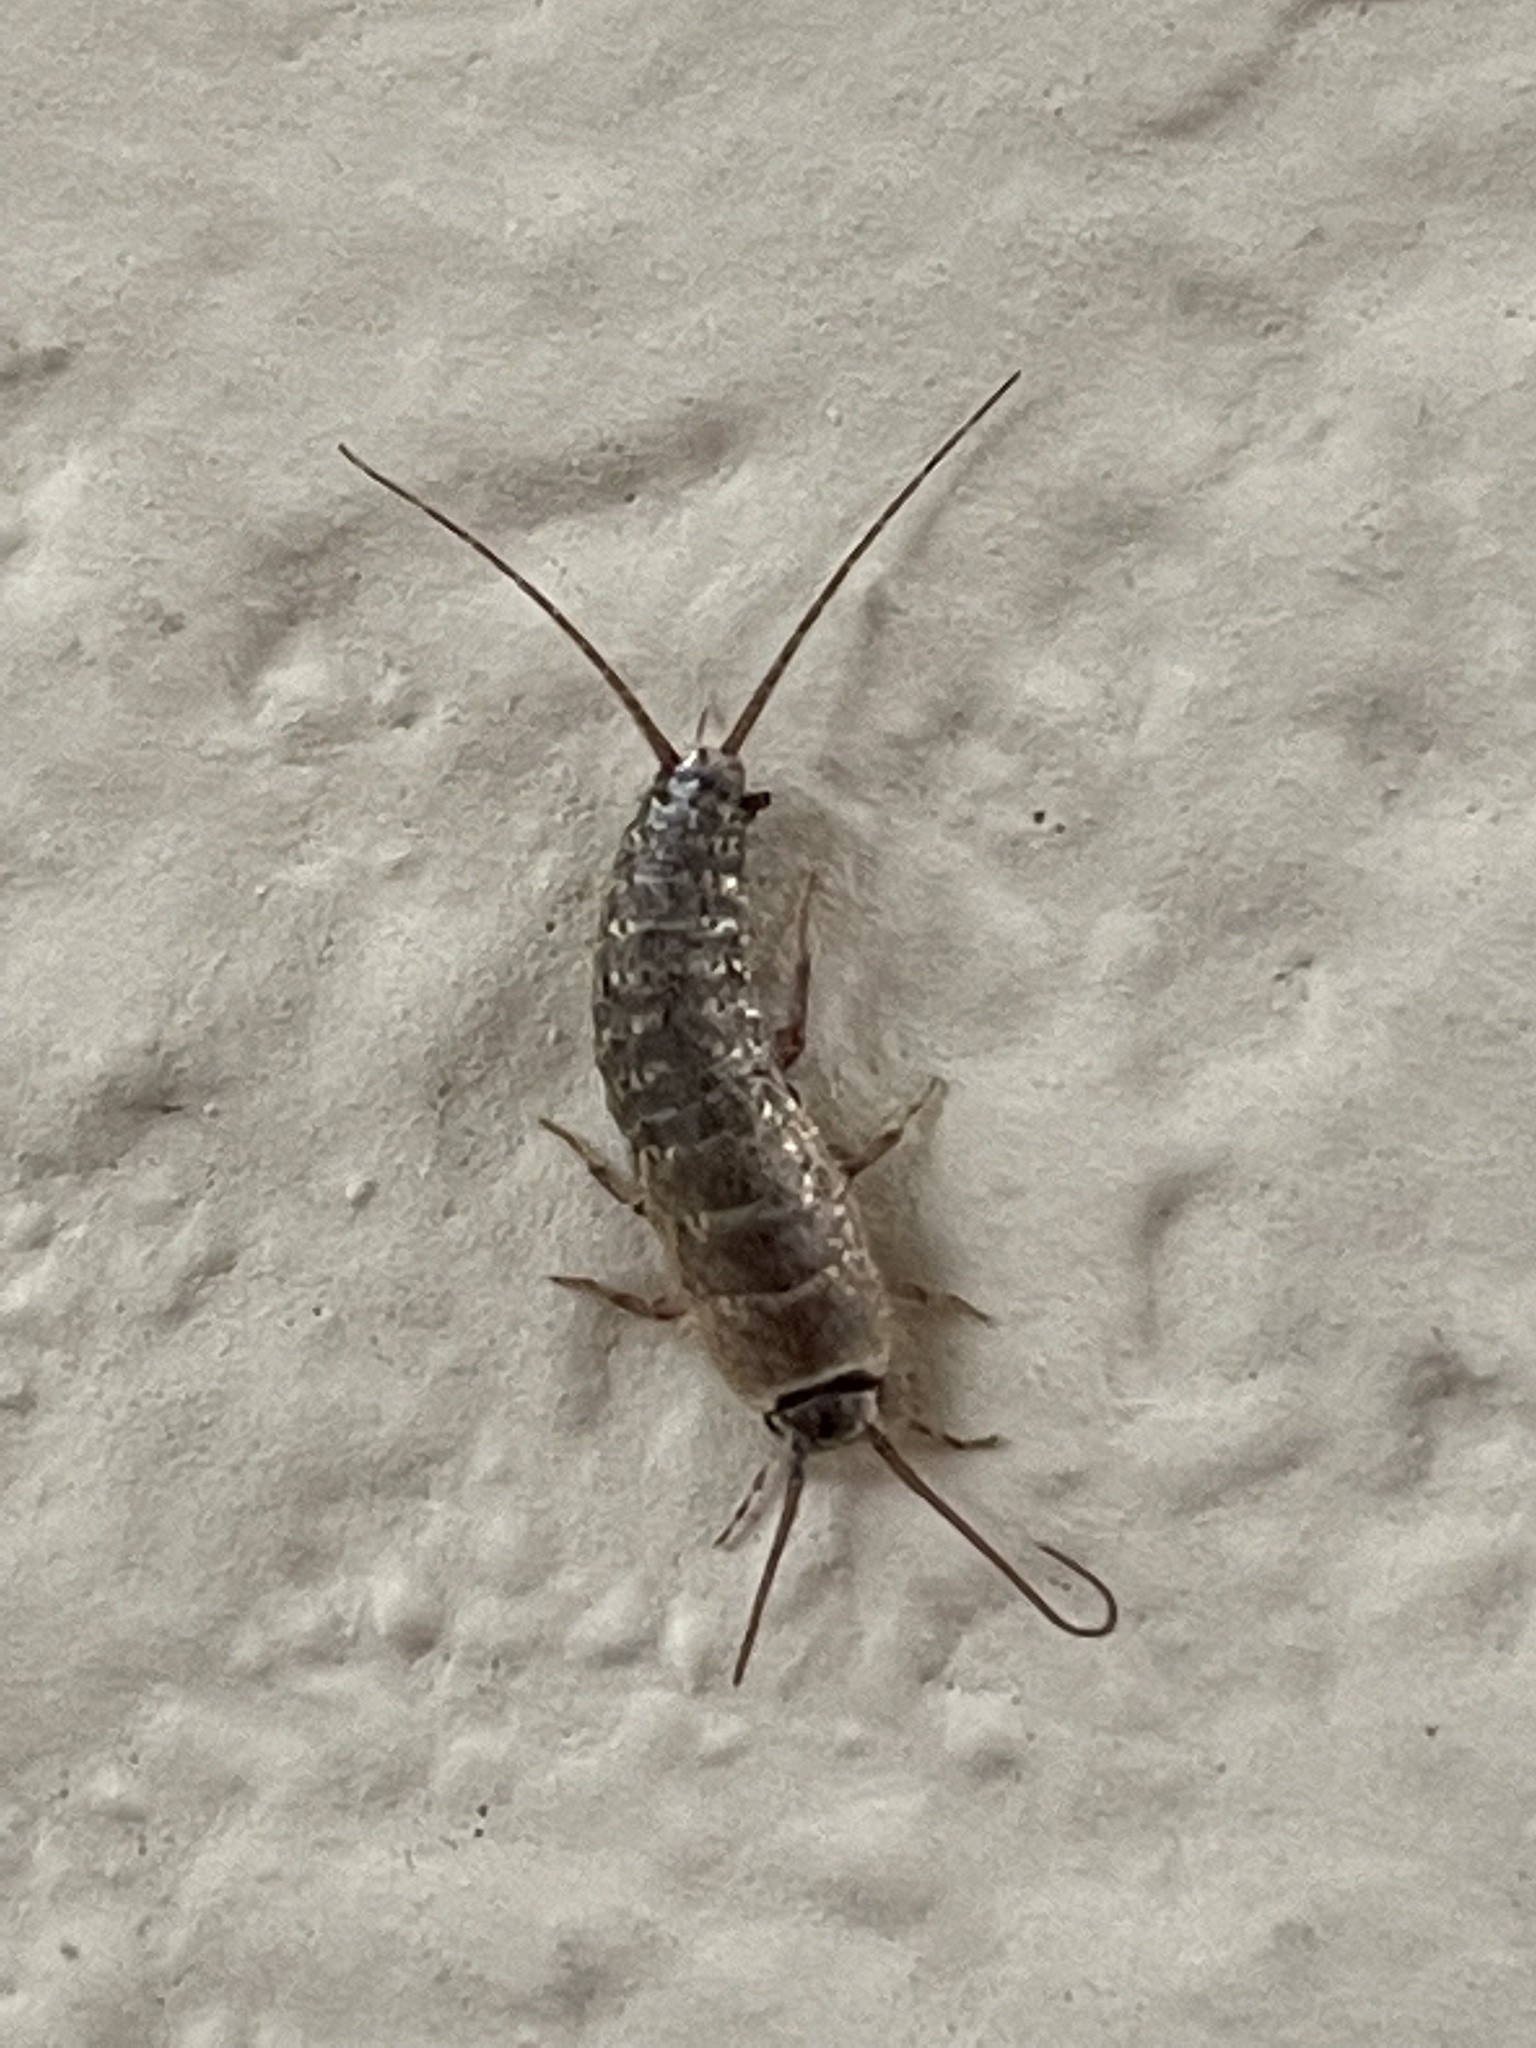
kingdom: Animalia
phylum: Arthropoda
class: Insecta
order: Zygentoma
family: Lepismatidae
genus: Ctenolepisma
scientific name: Ctenolepisma longicaudatum
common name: Silverfish
